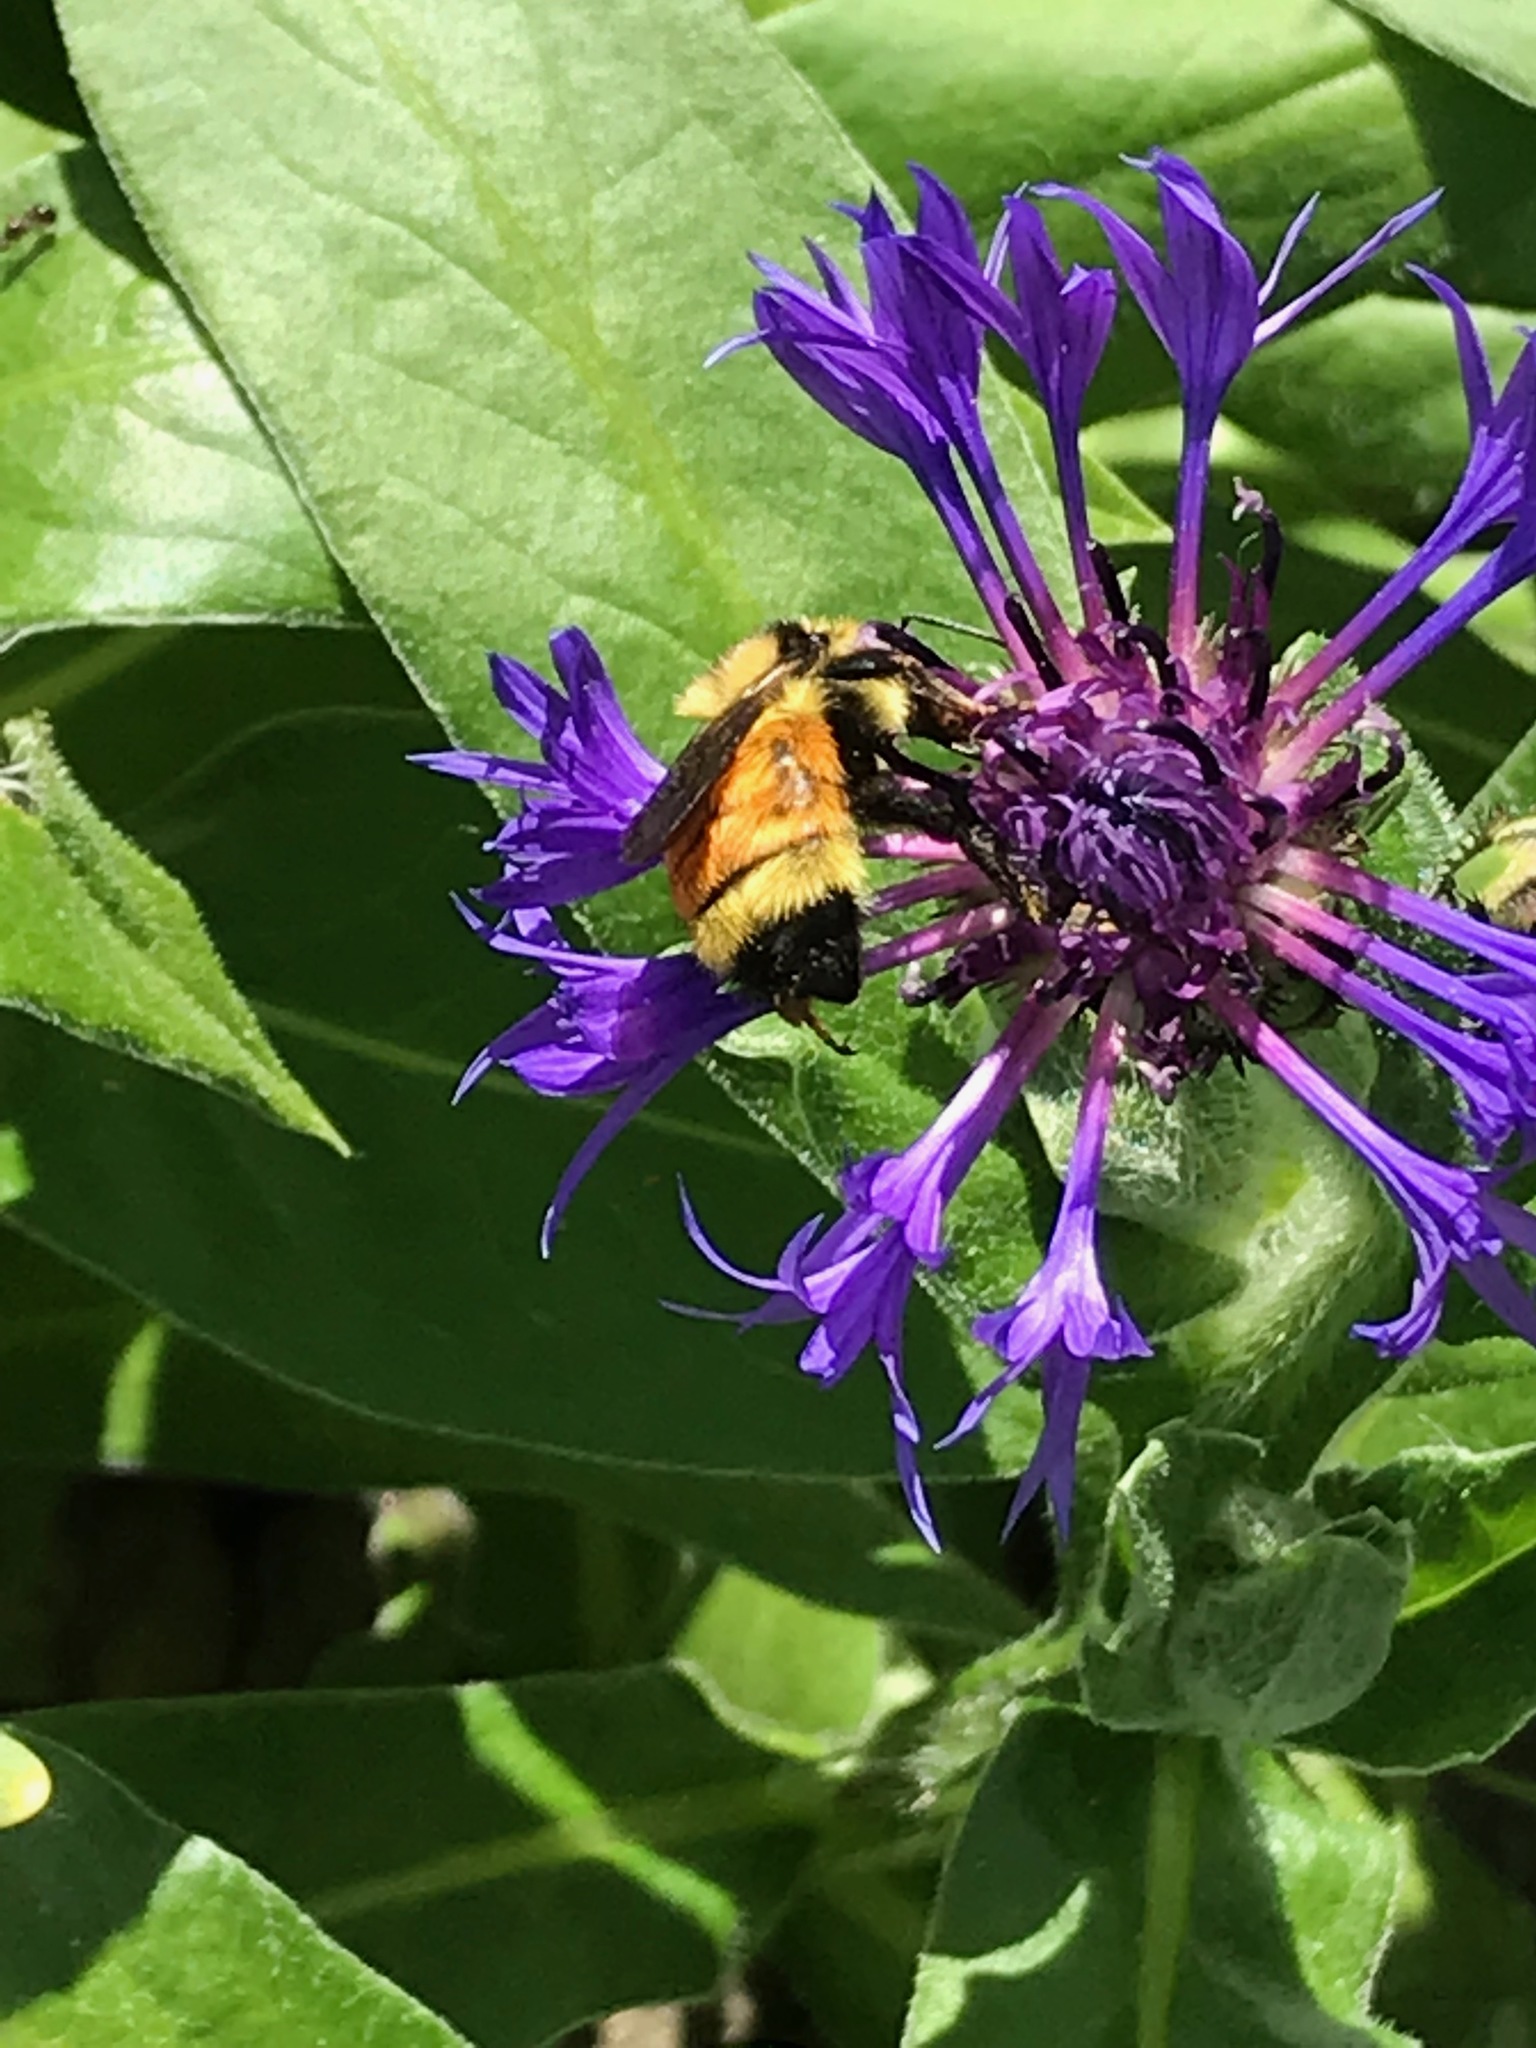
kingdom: Animalia
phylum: Arthropoda
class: Insecta
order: Hymenoptera
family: Apidae
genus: Bombus
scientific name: Bombus ternarius
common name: Tri-colored bumble bee
